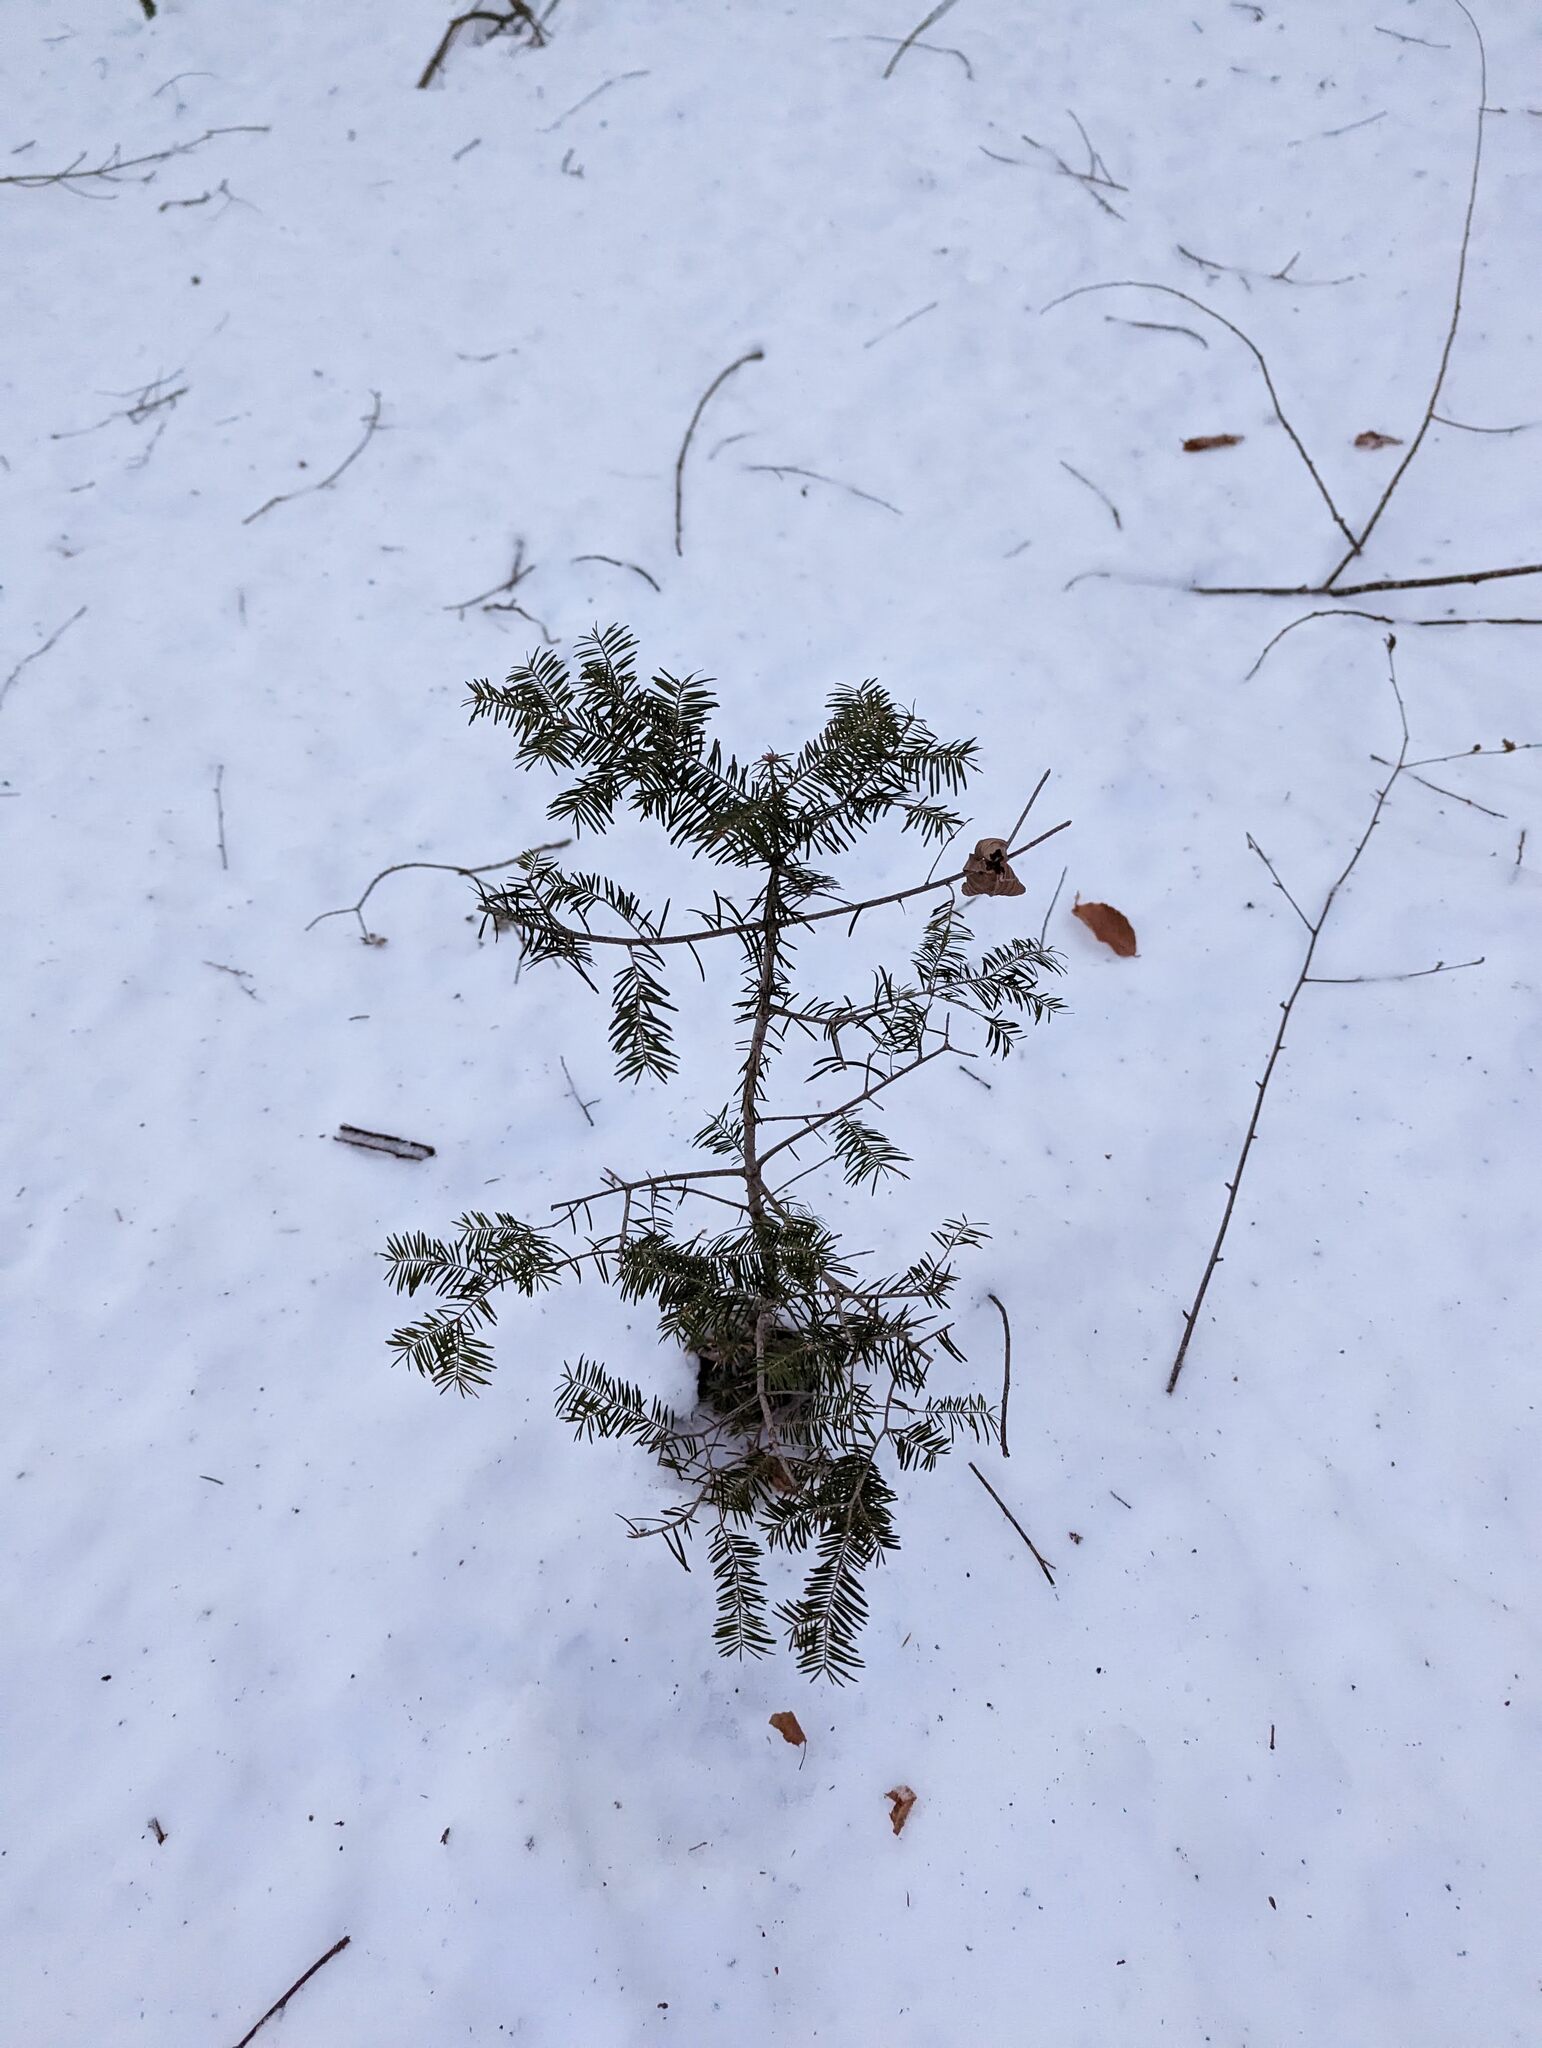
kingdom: Plantae
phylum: Tracheophyta
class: Pinopsida
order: Pinales
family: Pinaceae
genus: Abies
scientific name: Abies balsamea
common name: Balsam fir
